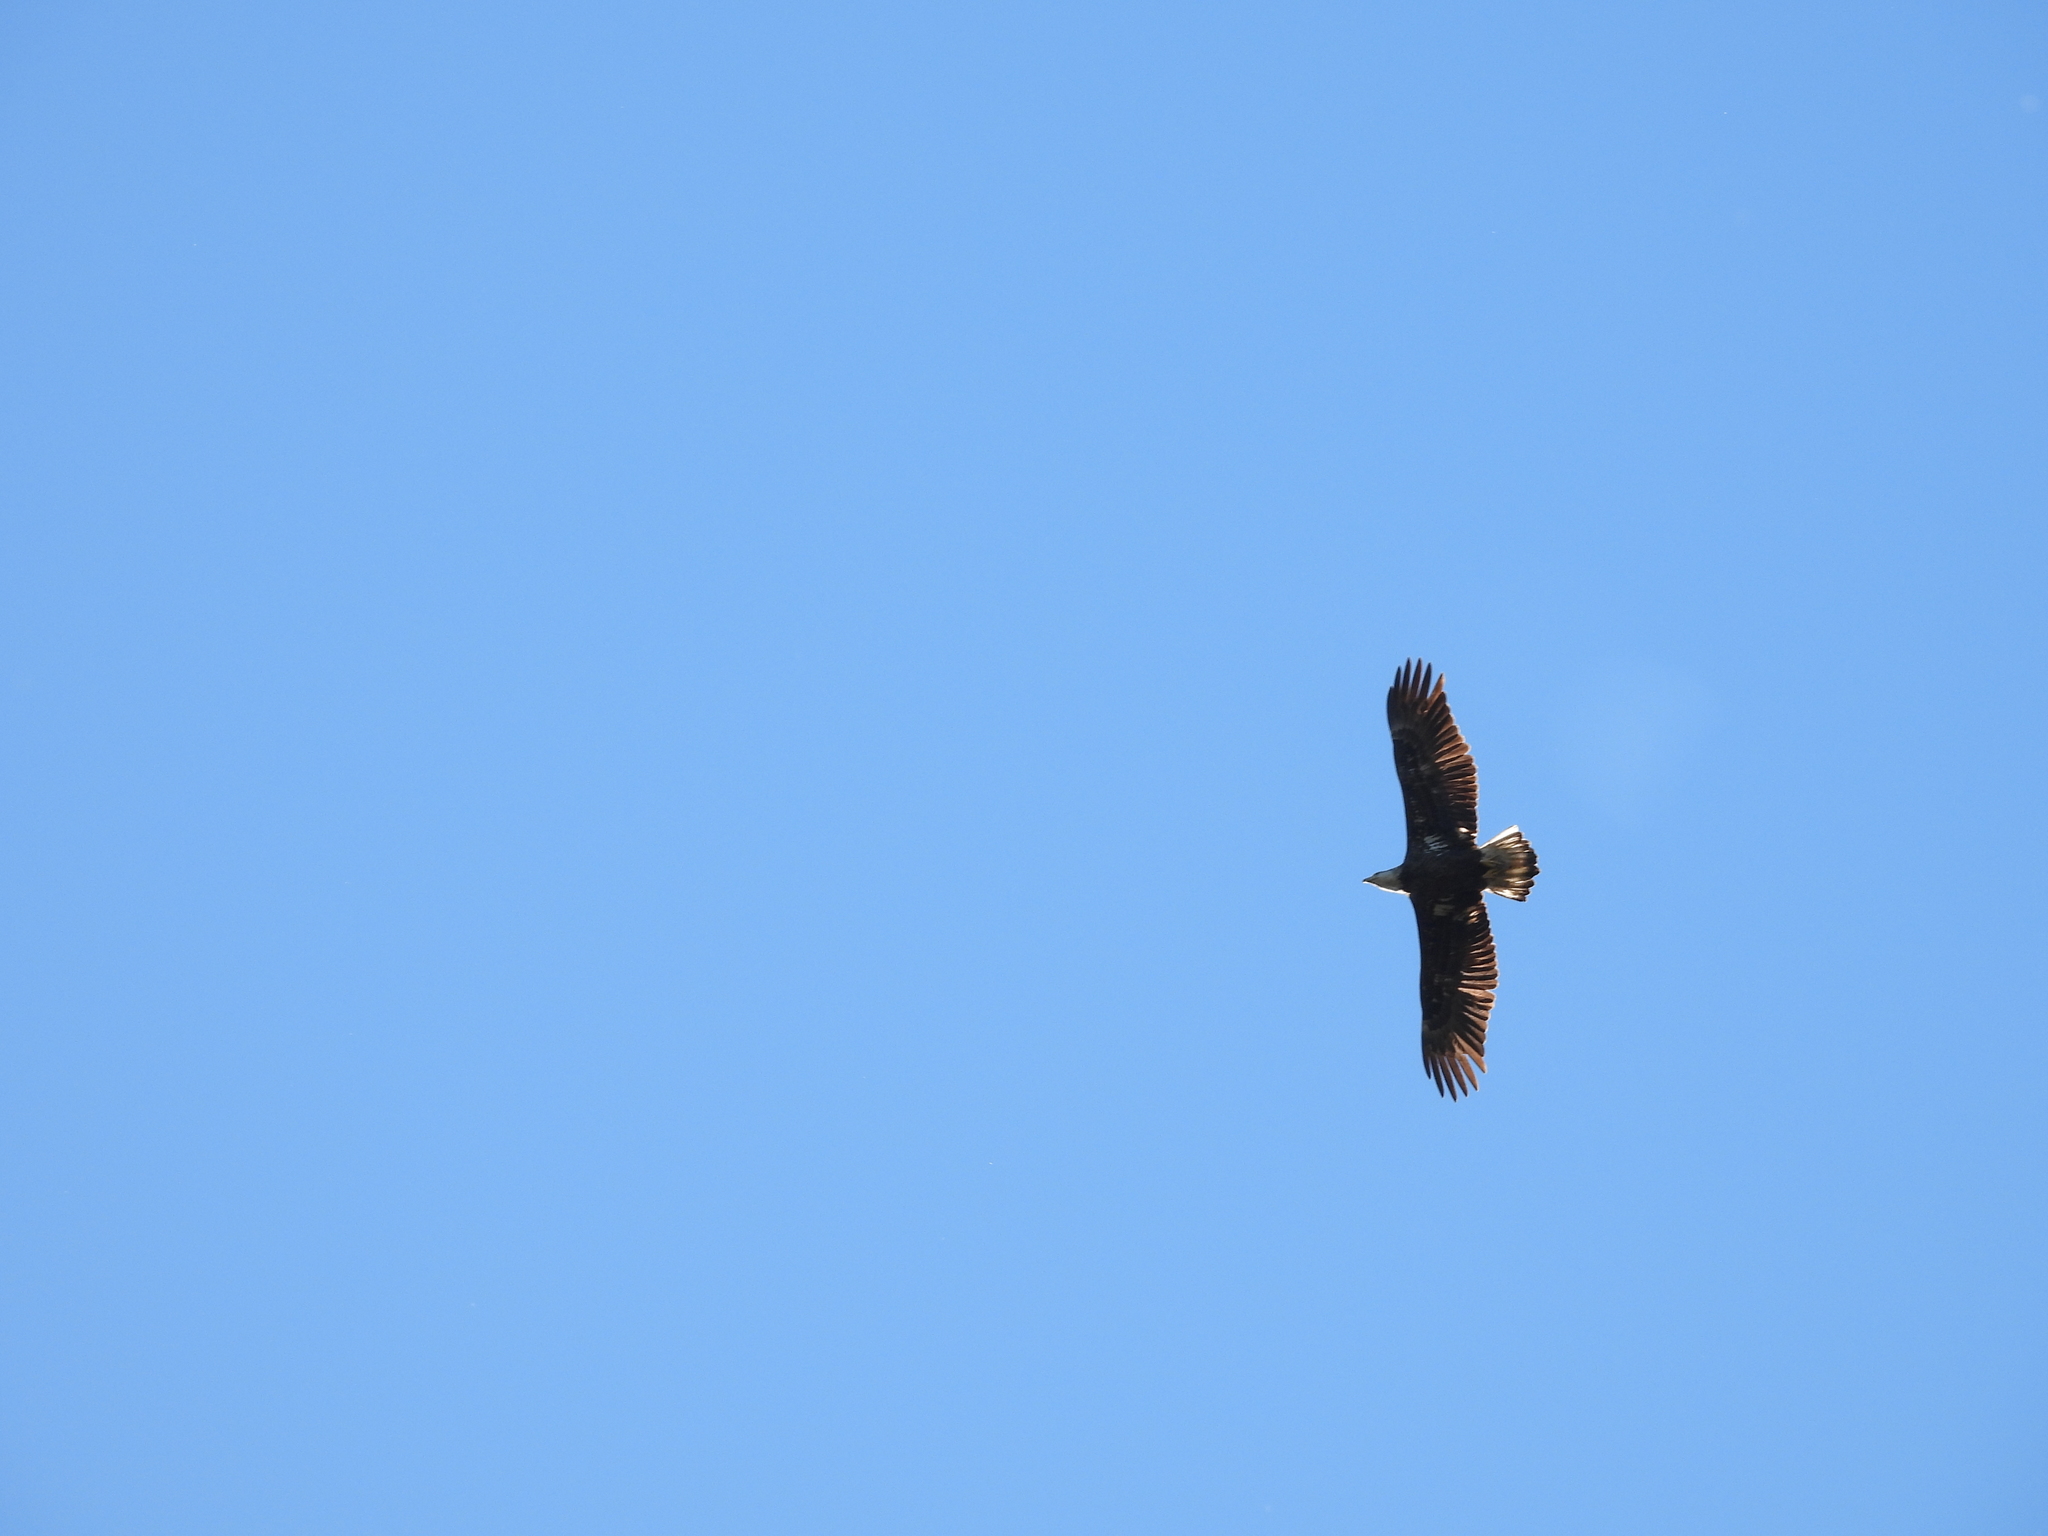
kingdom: Animalia
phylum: Chordata
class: Aves
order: Accipitriformes
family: Accipitridae
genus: Haliaeetus
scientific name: Haliaeetus leucocephalus
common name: Bald eagle
